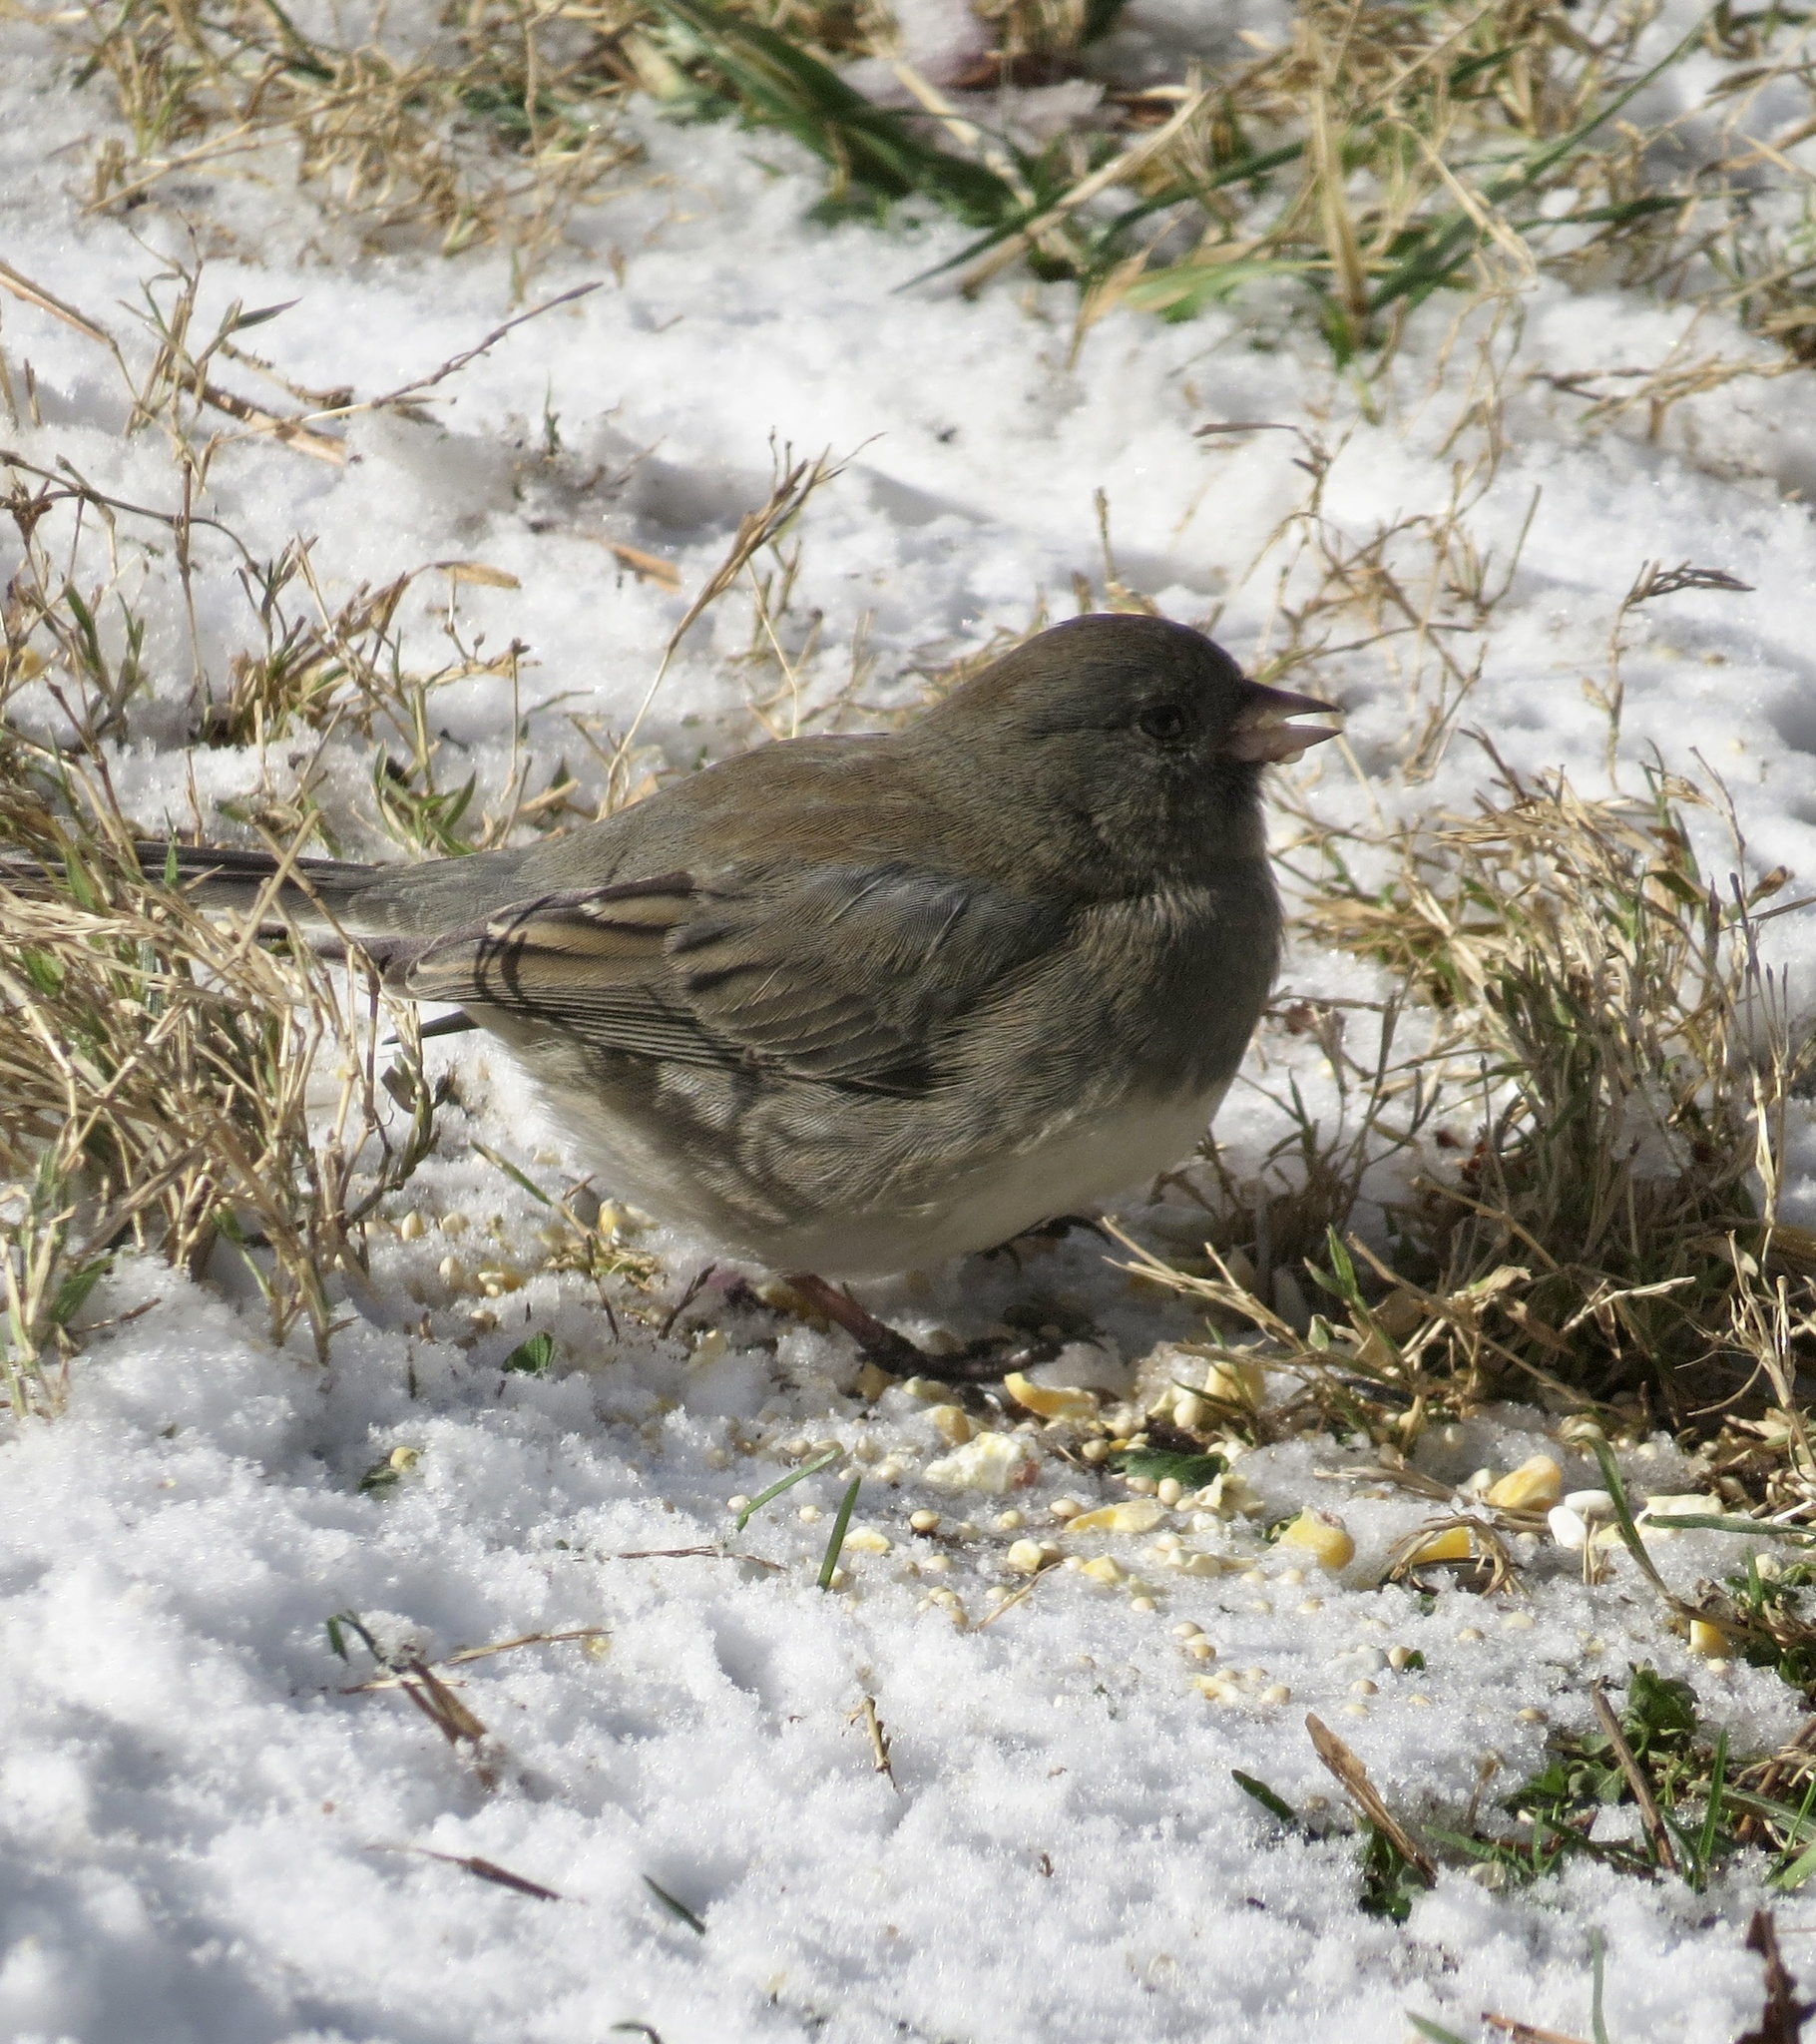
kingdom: Animalia
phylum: Chordata
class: Aves
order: Passeriformes
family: Passerellidae
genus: Junco
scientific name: Junco hyemalis
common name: Dark-eyed junco
